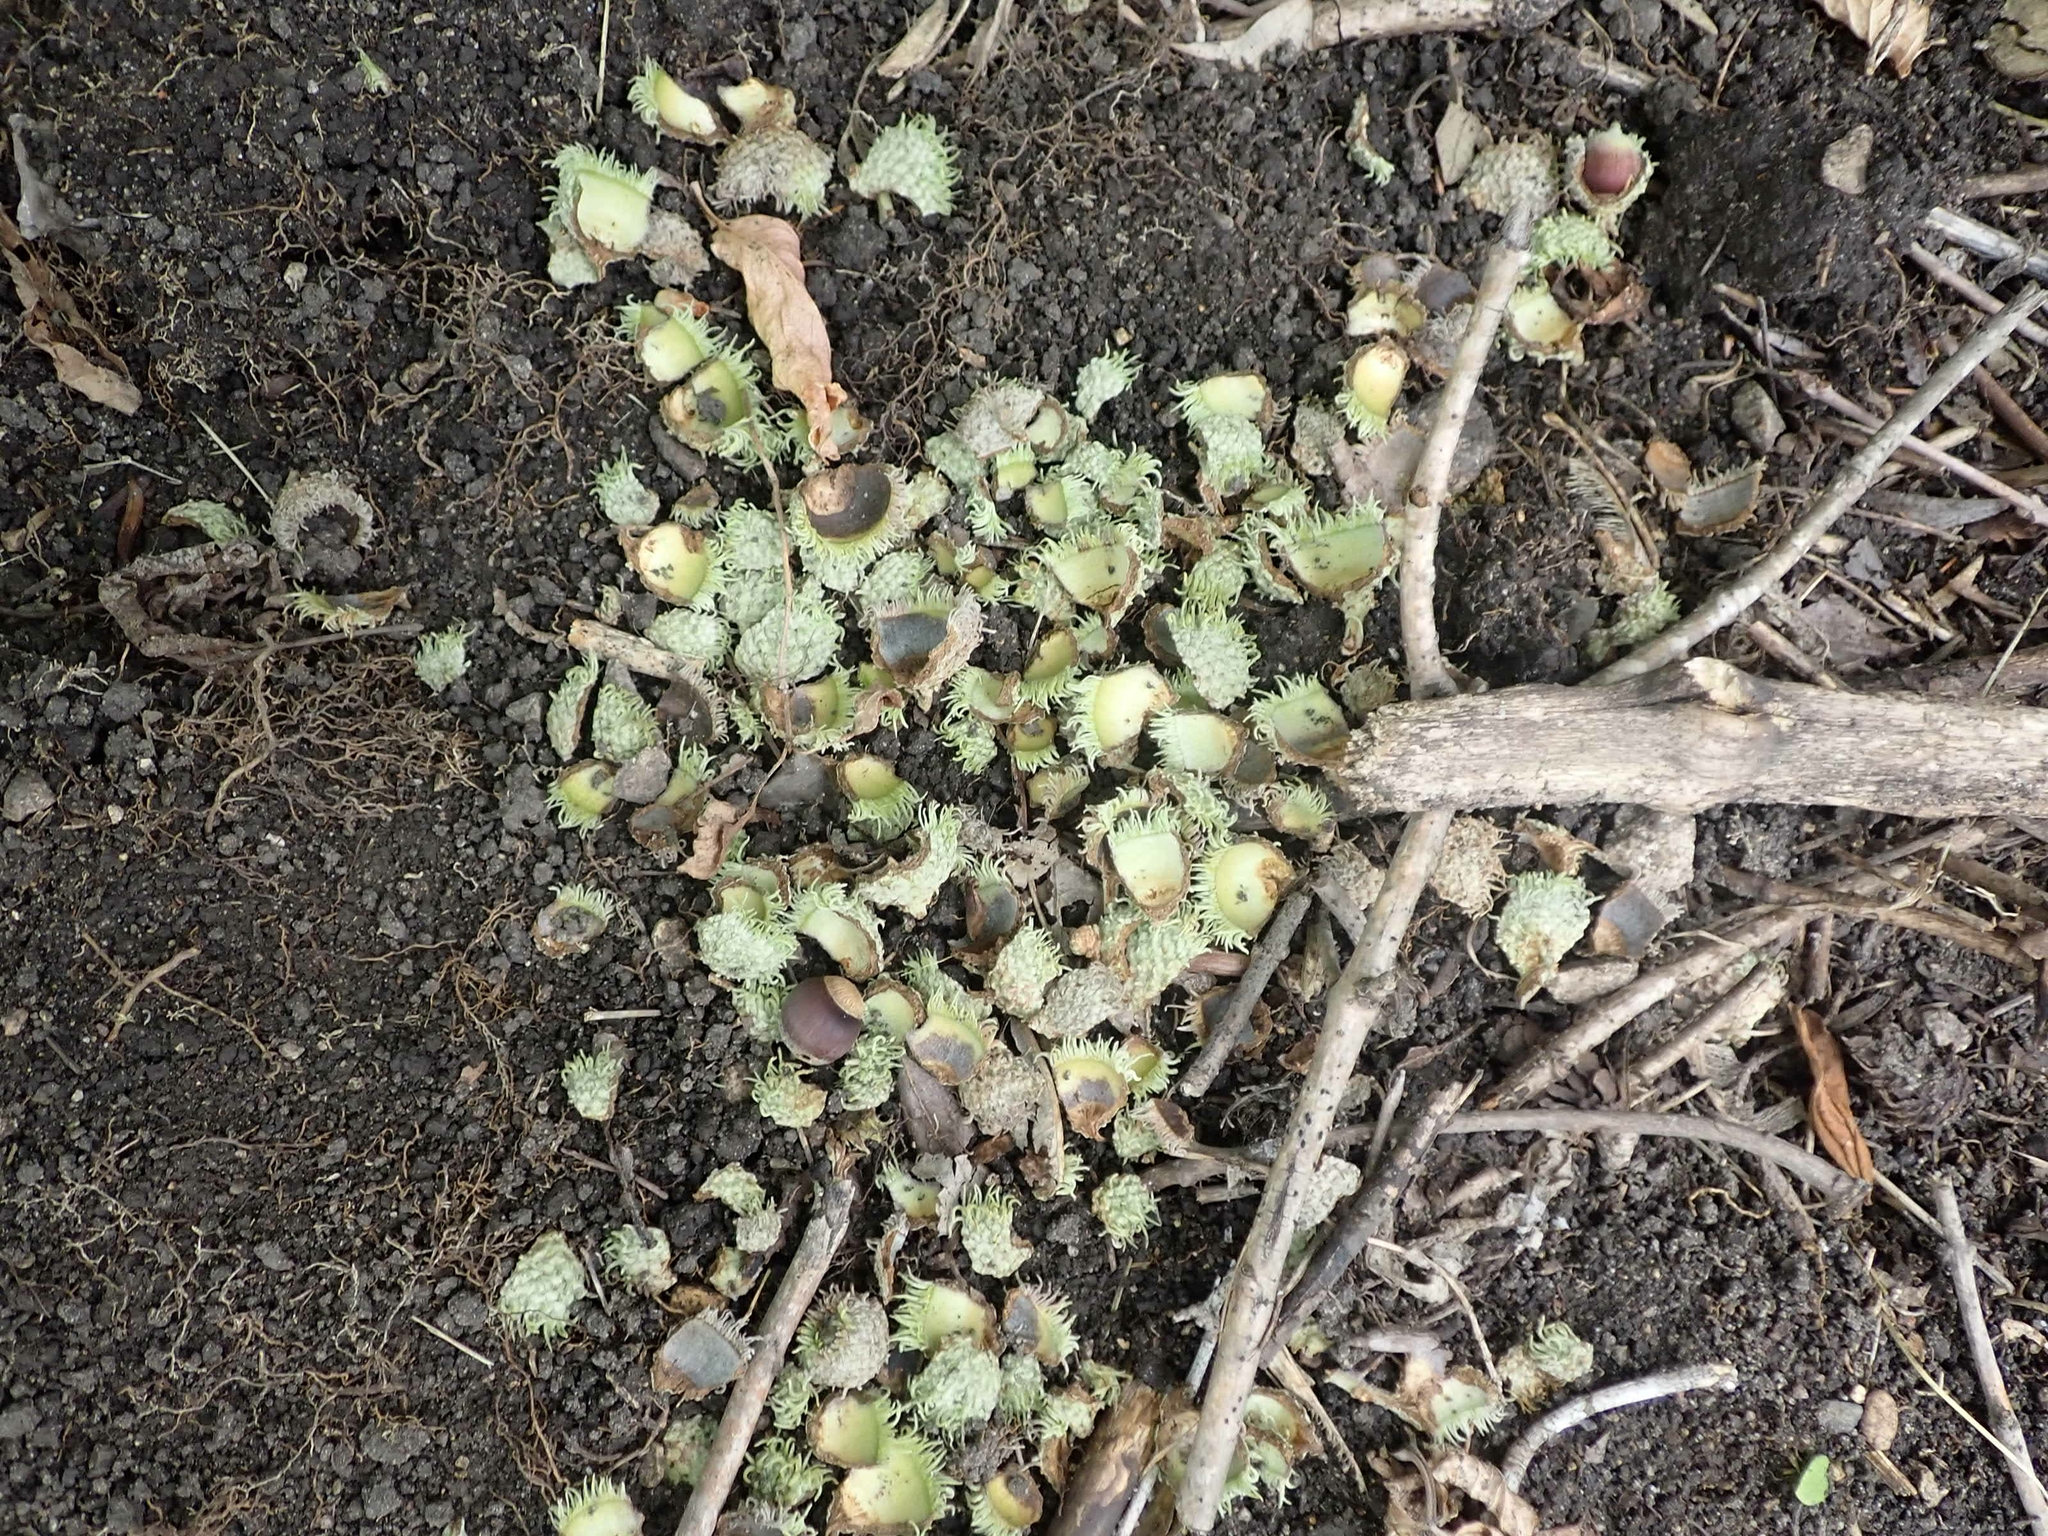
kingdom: Plantae
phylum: Tracheophyta
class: Magnoliopsida
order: Fagales
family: Fagaceae
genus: Quercus
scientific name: Quercus macrocarpa
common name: Bur oak
